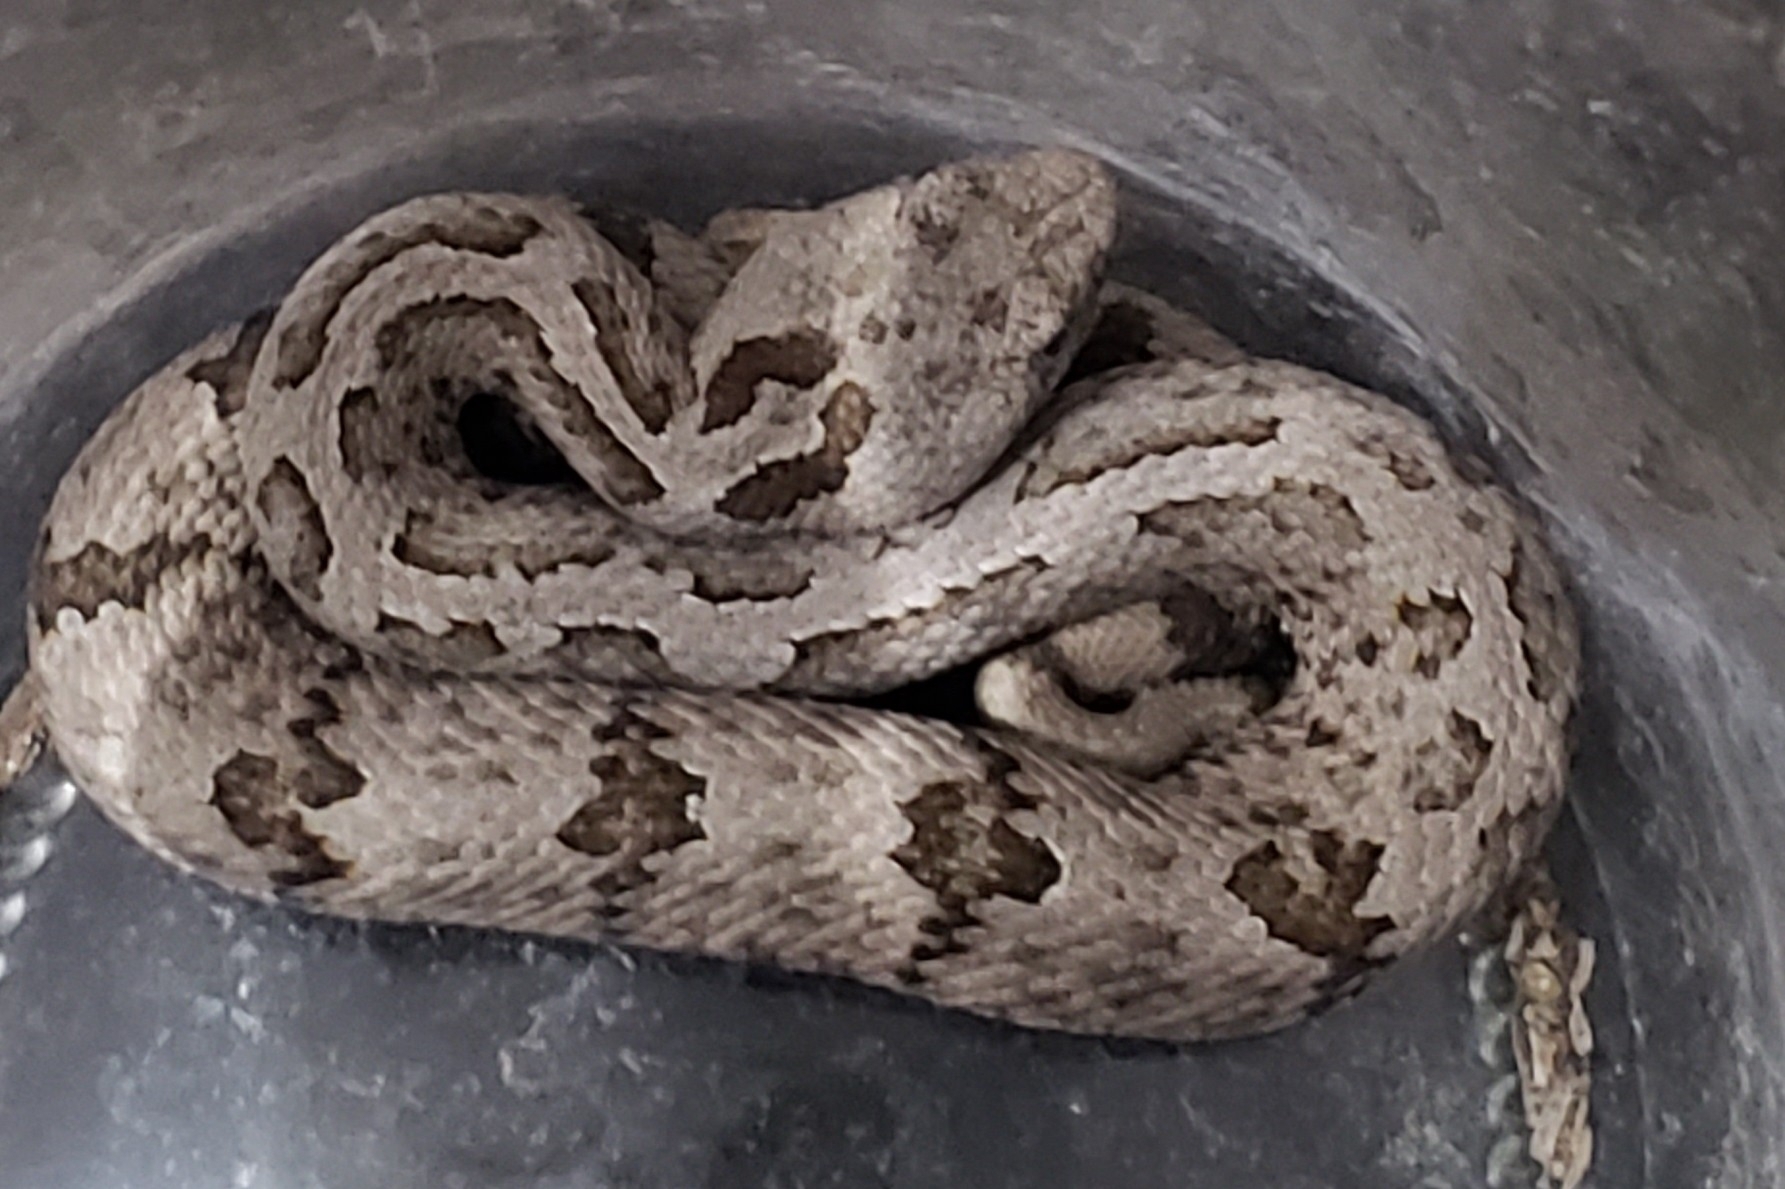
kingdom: Animalia
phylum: Chordata
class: Squamata
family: Viperidae
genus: Crotalus
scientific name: Crotalus lepidus
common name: Rock rattlesnake
